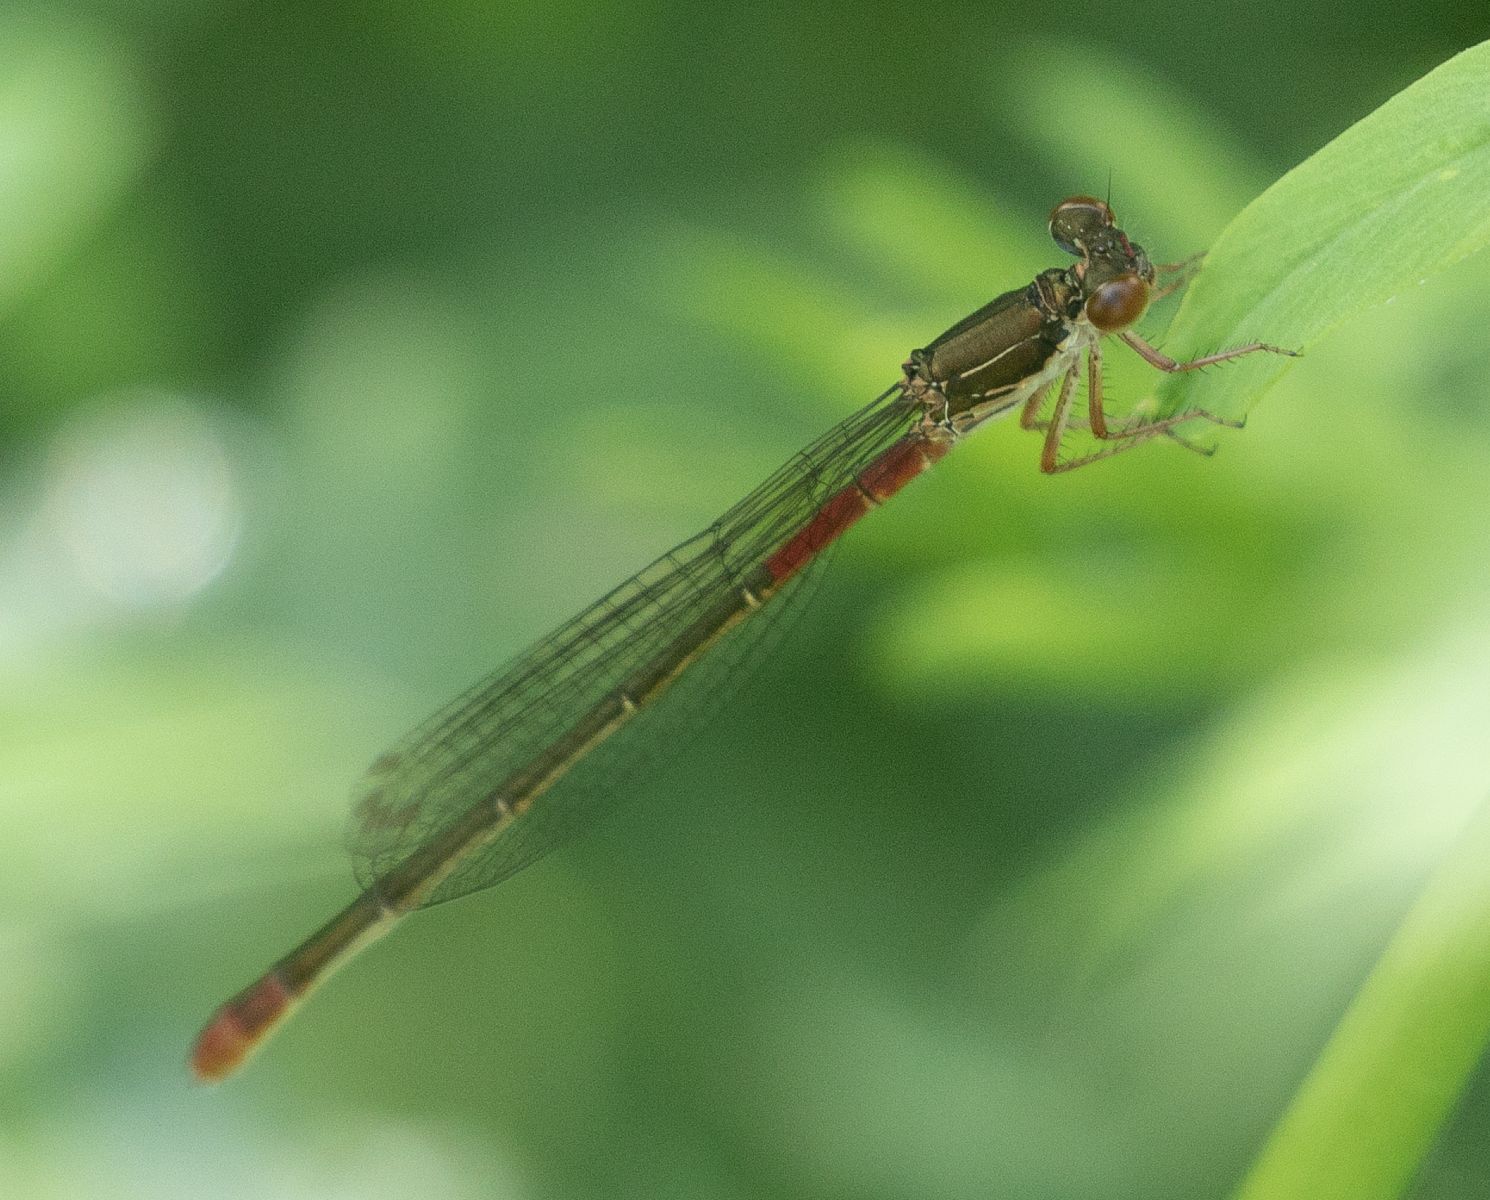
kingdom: Animalia
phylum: Arthropoda
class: Insecta
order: Odonata
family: Coenagrionidae
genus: Ceriagrion
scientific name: Ceriagrion tenellum
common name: Small red damselfly
